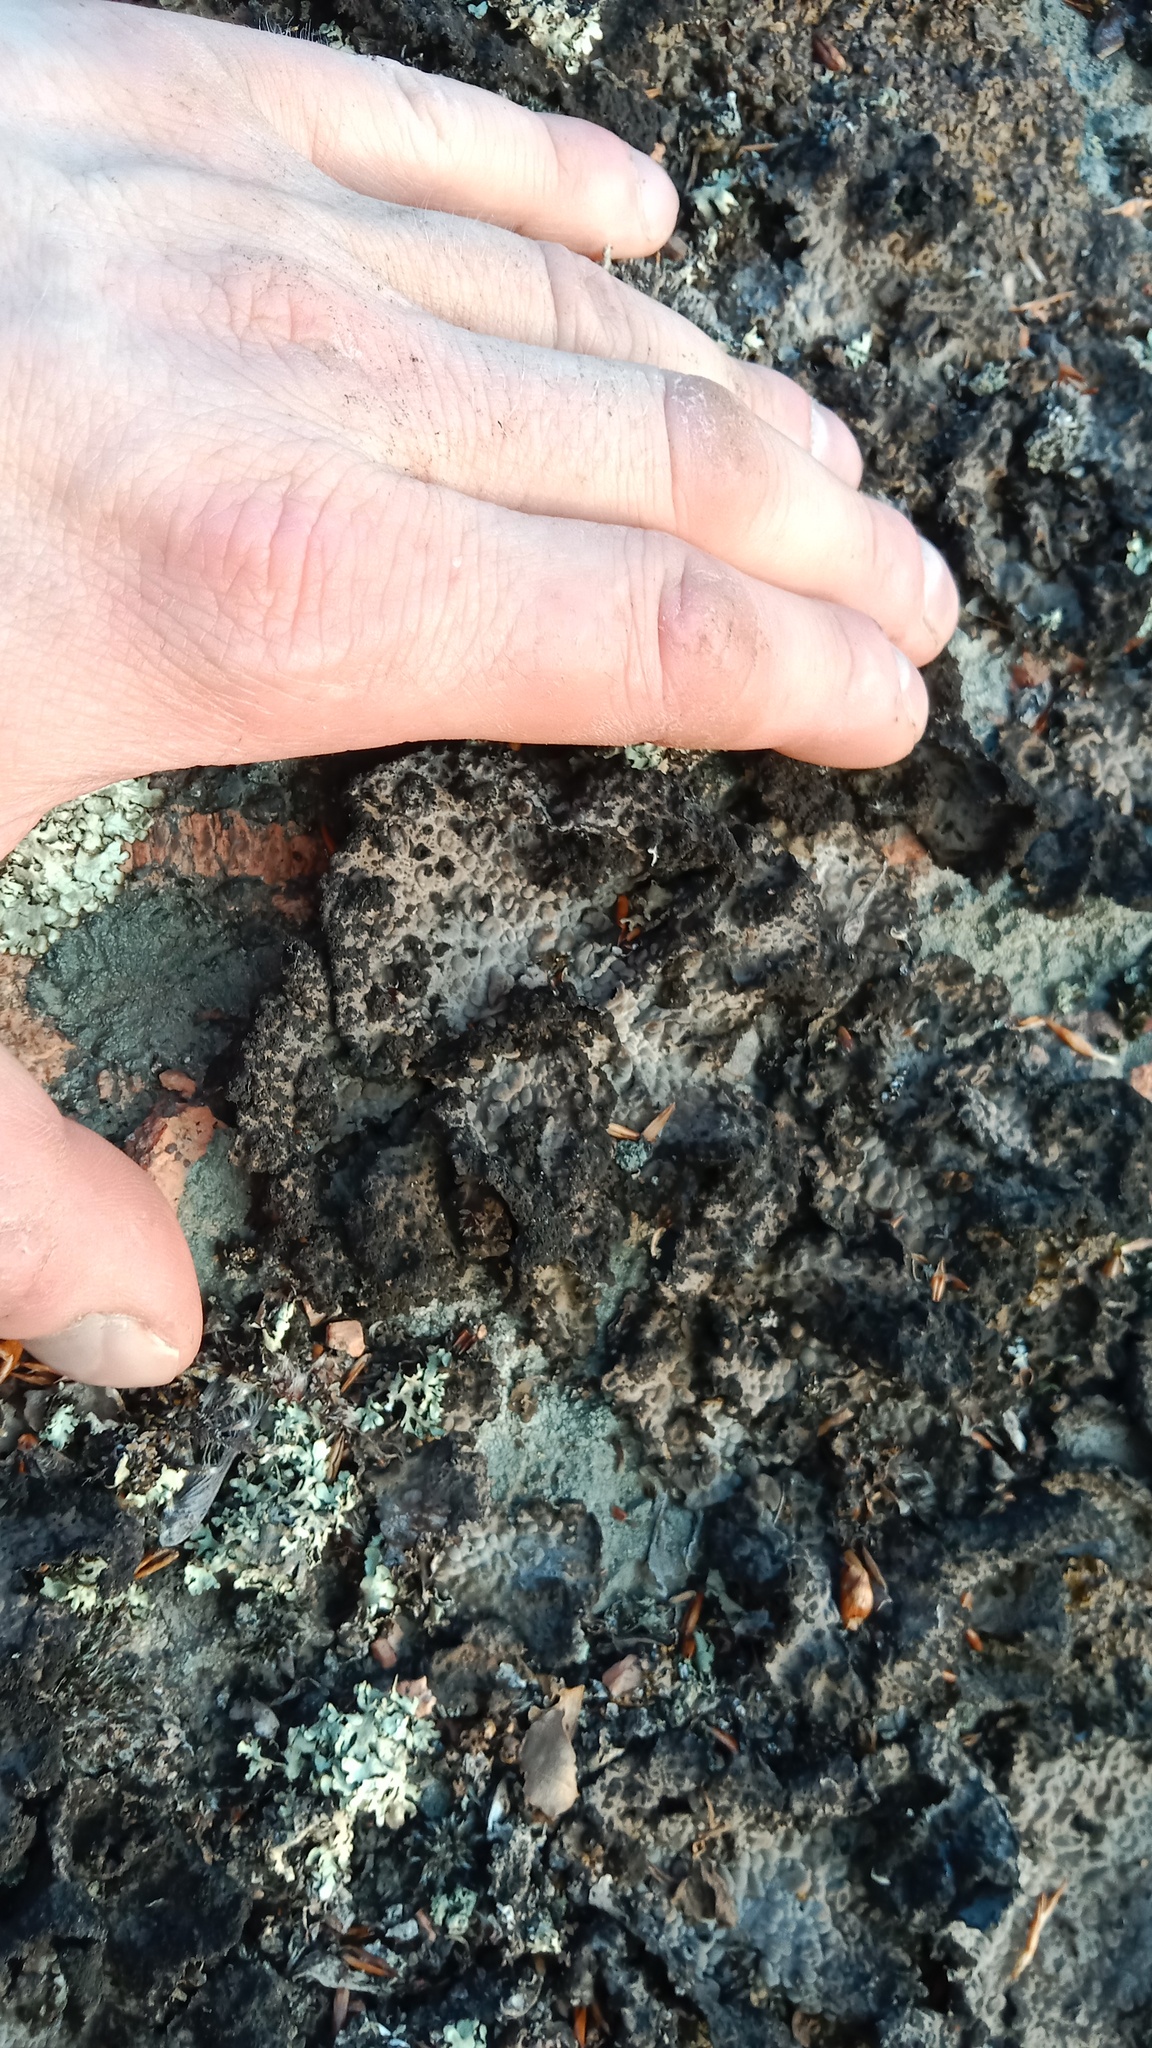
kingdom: Fungi
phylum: Ascomycota
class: Lecanoromycetes
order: Umbilicariales
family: Umbilicariaceae
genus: Lasallia
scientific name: Lasallia pustulata
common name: Blistered toadskin lichen
